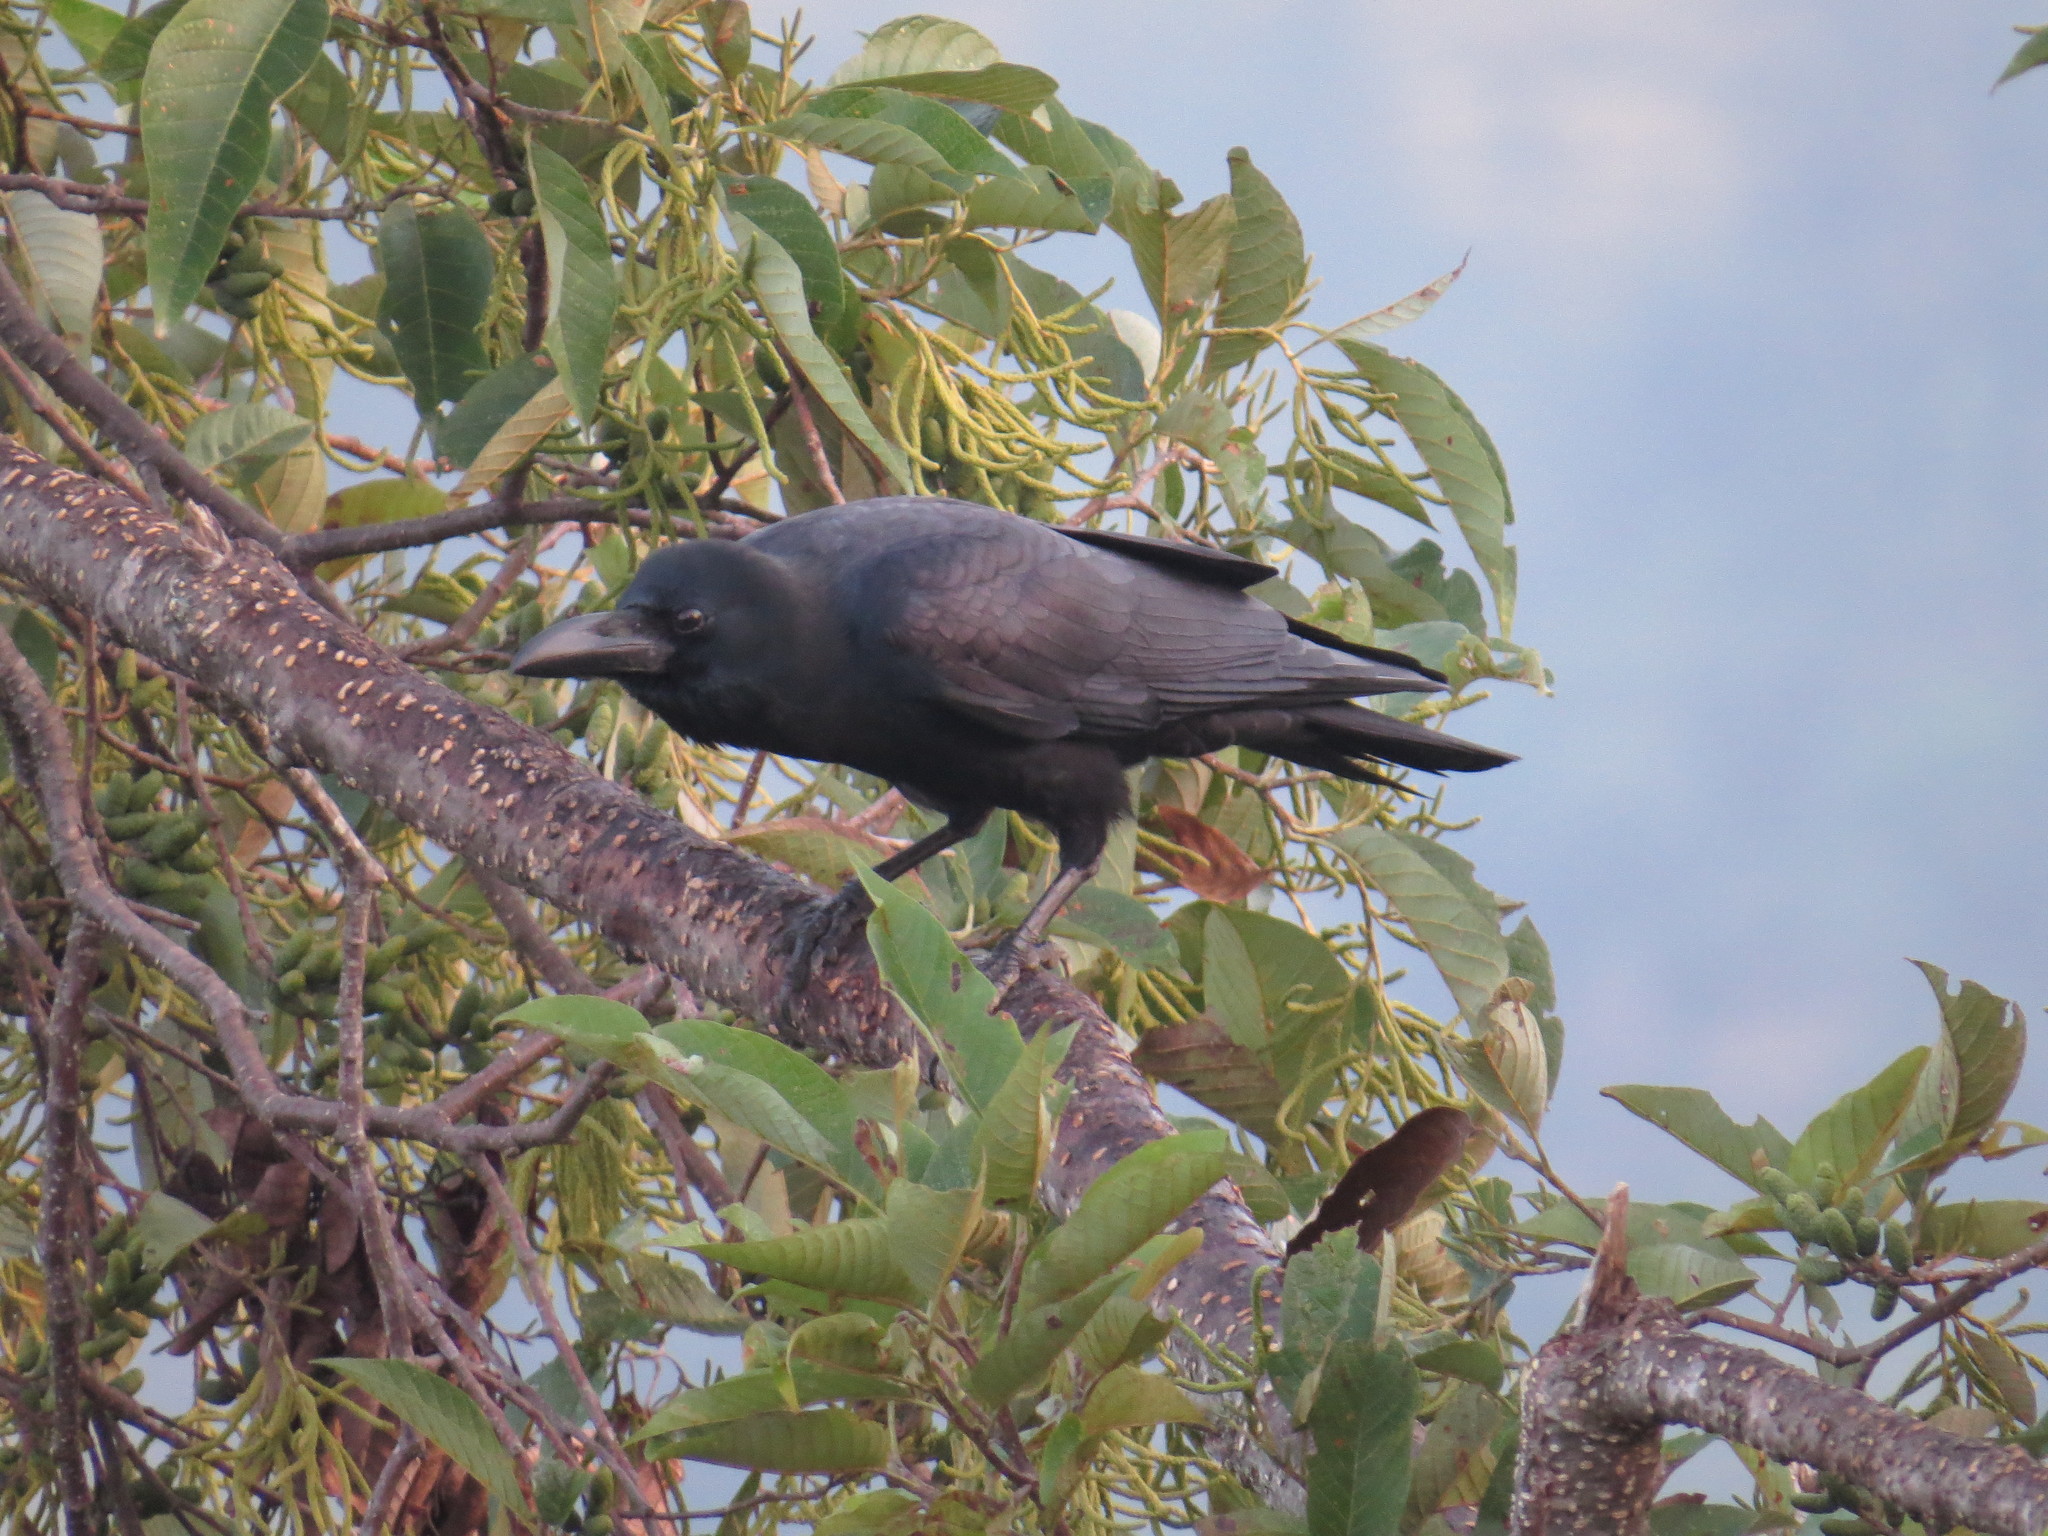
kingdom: Animalia
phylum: Chordata
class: Aves
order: Passeriformes
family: Corvidae
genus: Corvus
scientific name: Corvus macrorhynchos
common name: Large-billed crow
